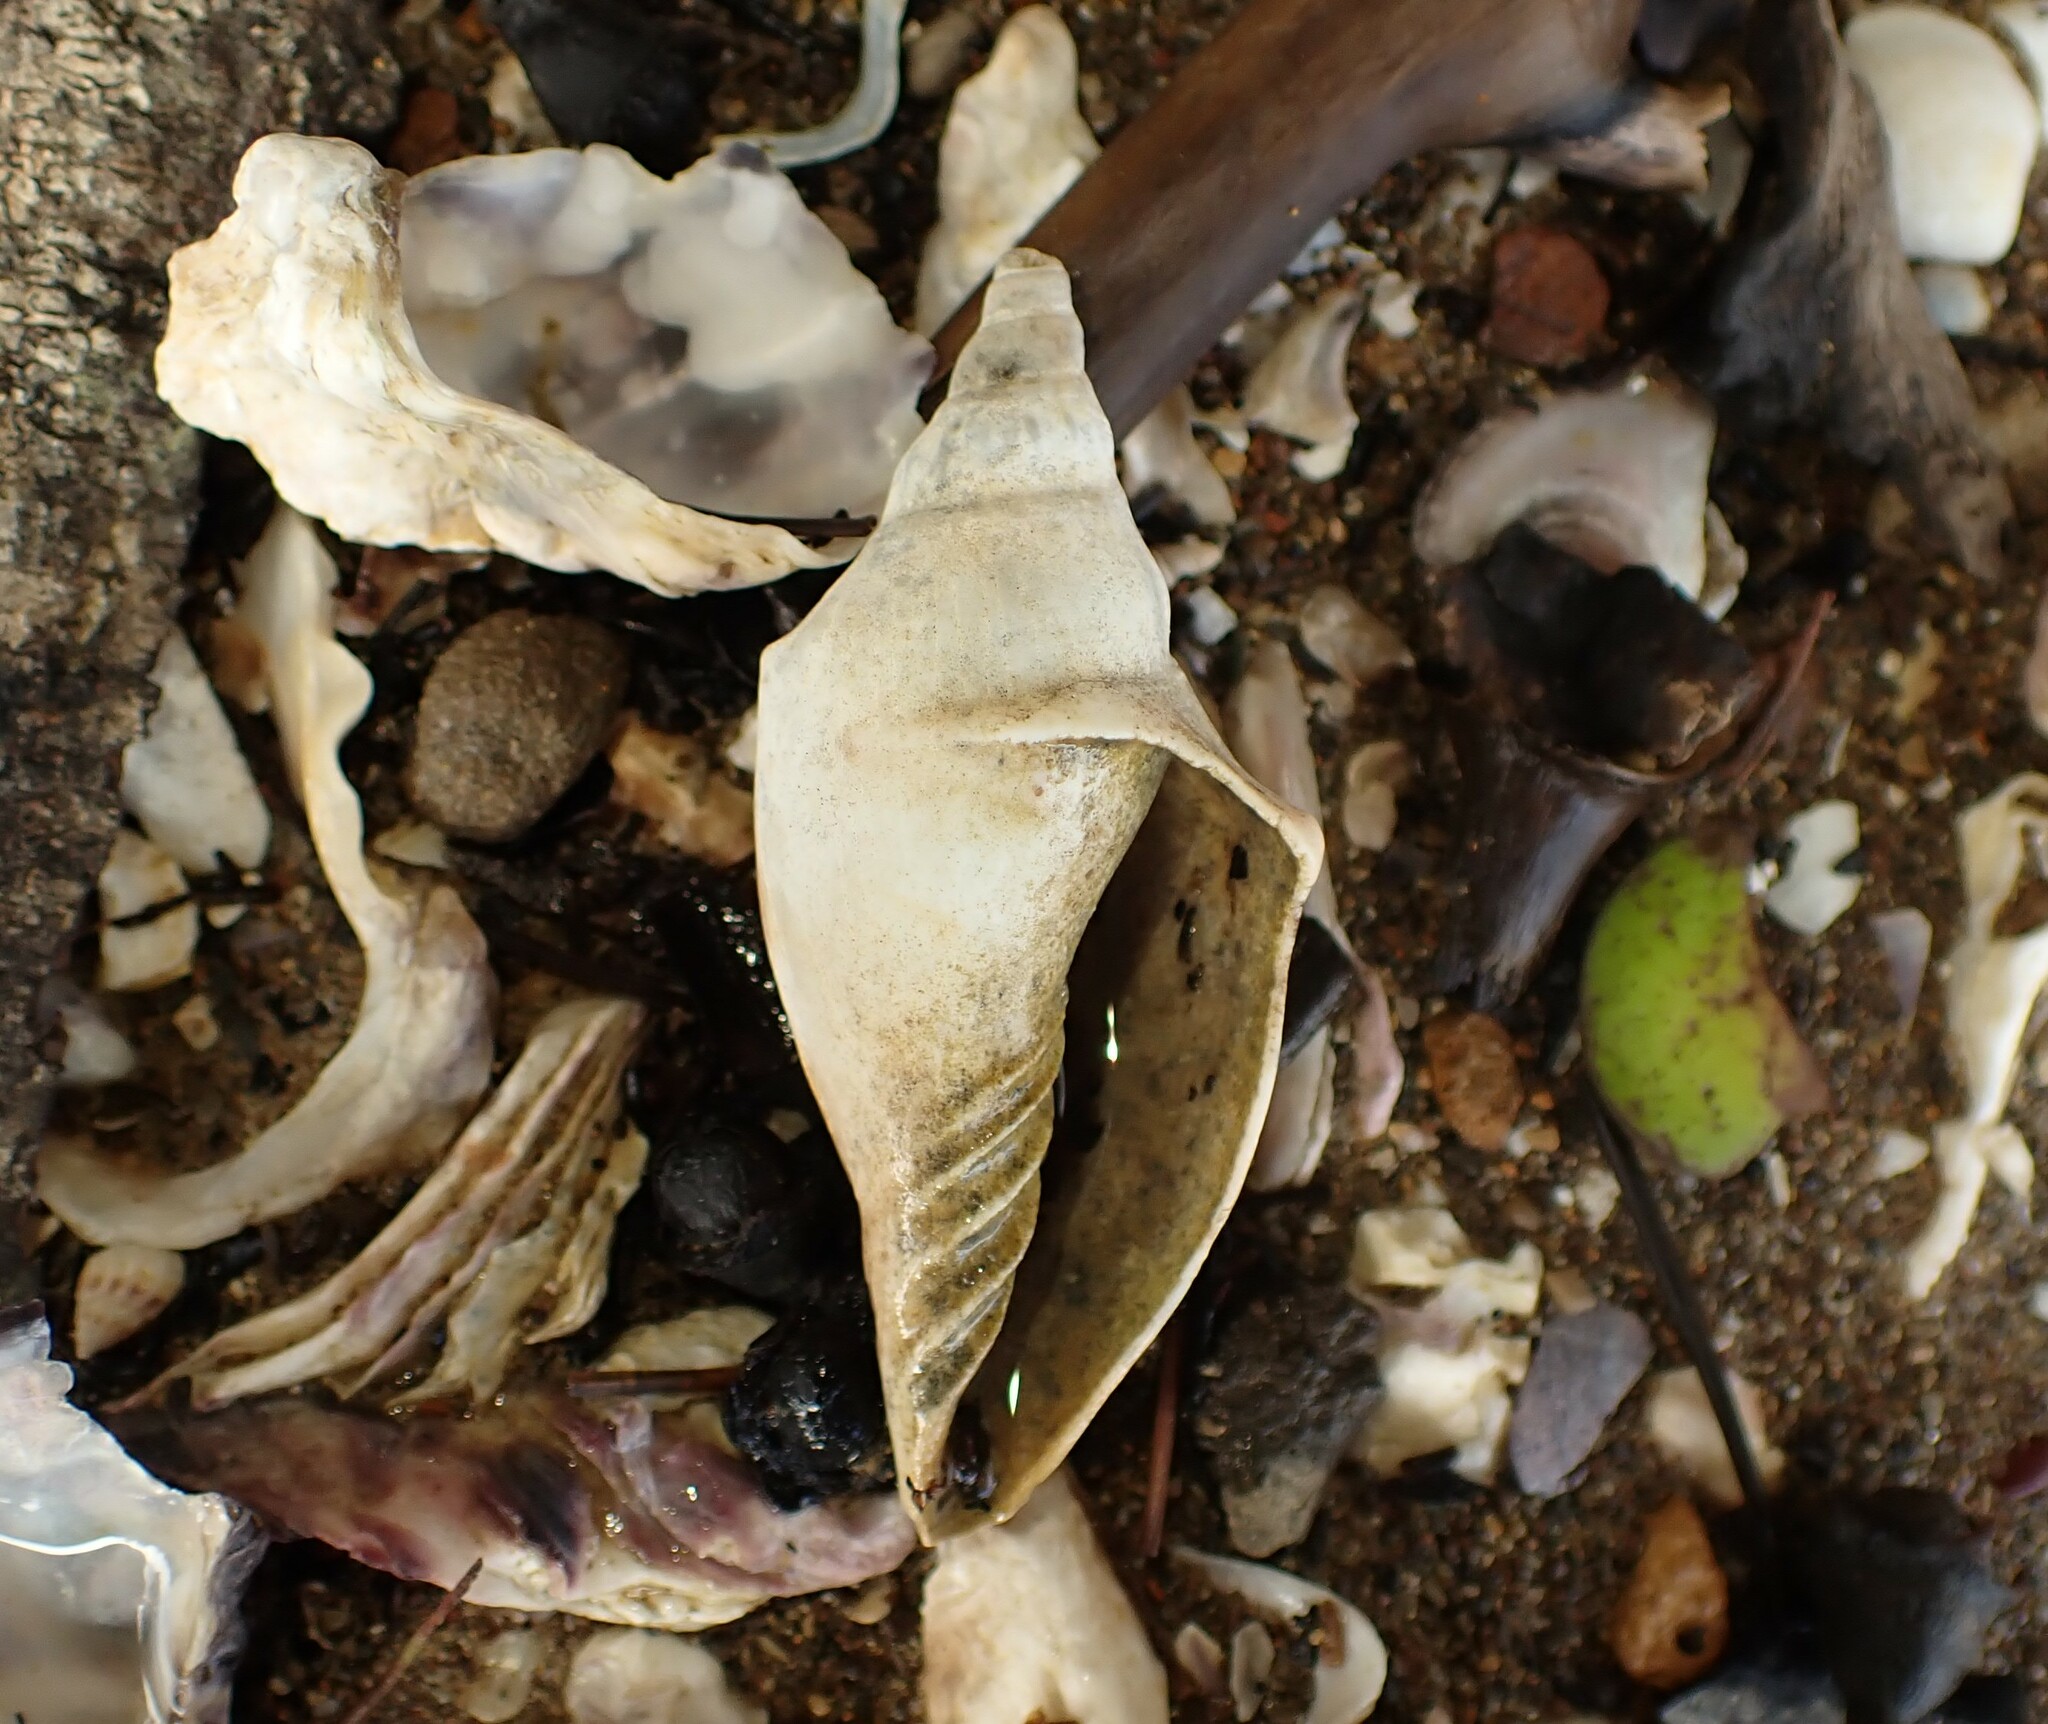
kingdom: Animalia
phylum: Mollusca
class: Gastropoda
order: Neogastropoda
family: Volutidae
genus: Alcithoe
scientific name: Alcithoe arabica
